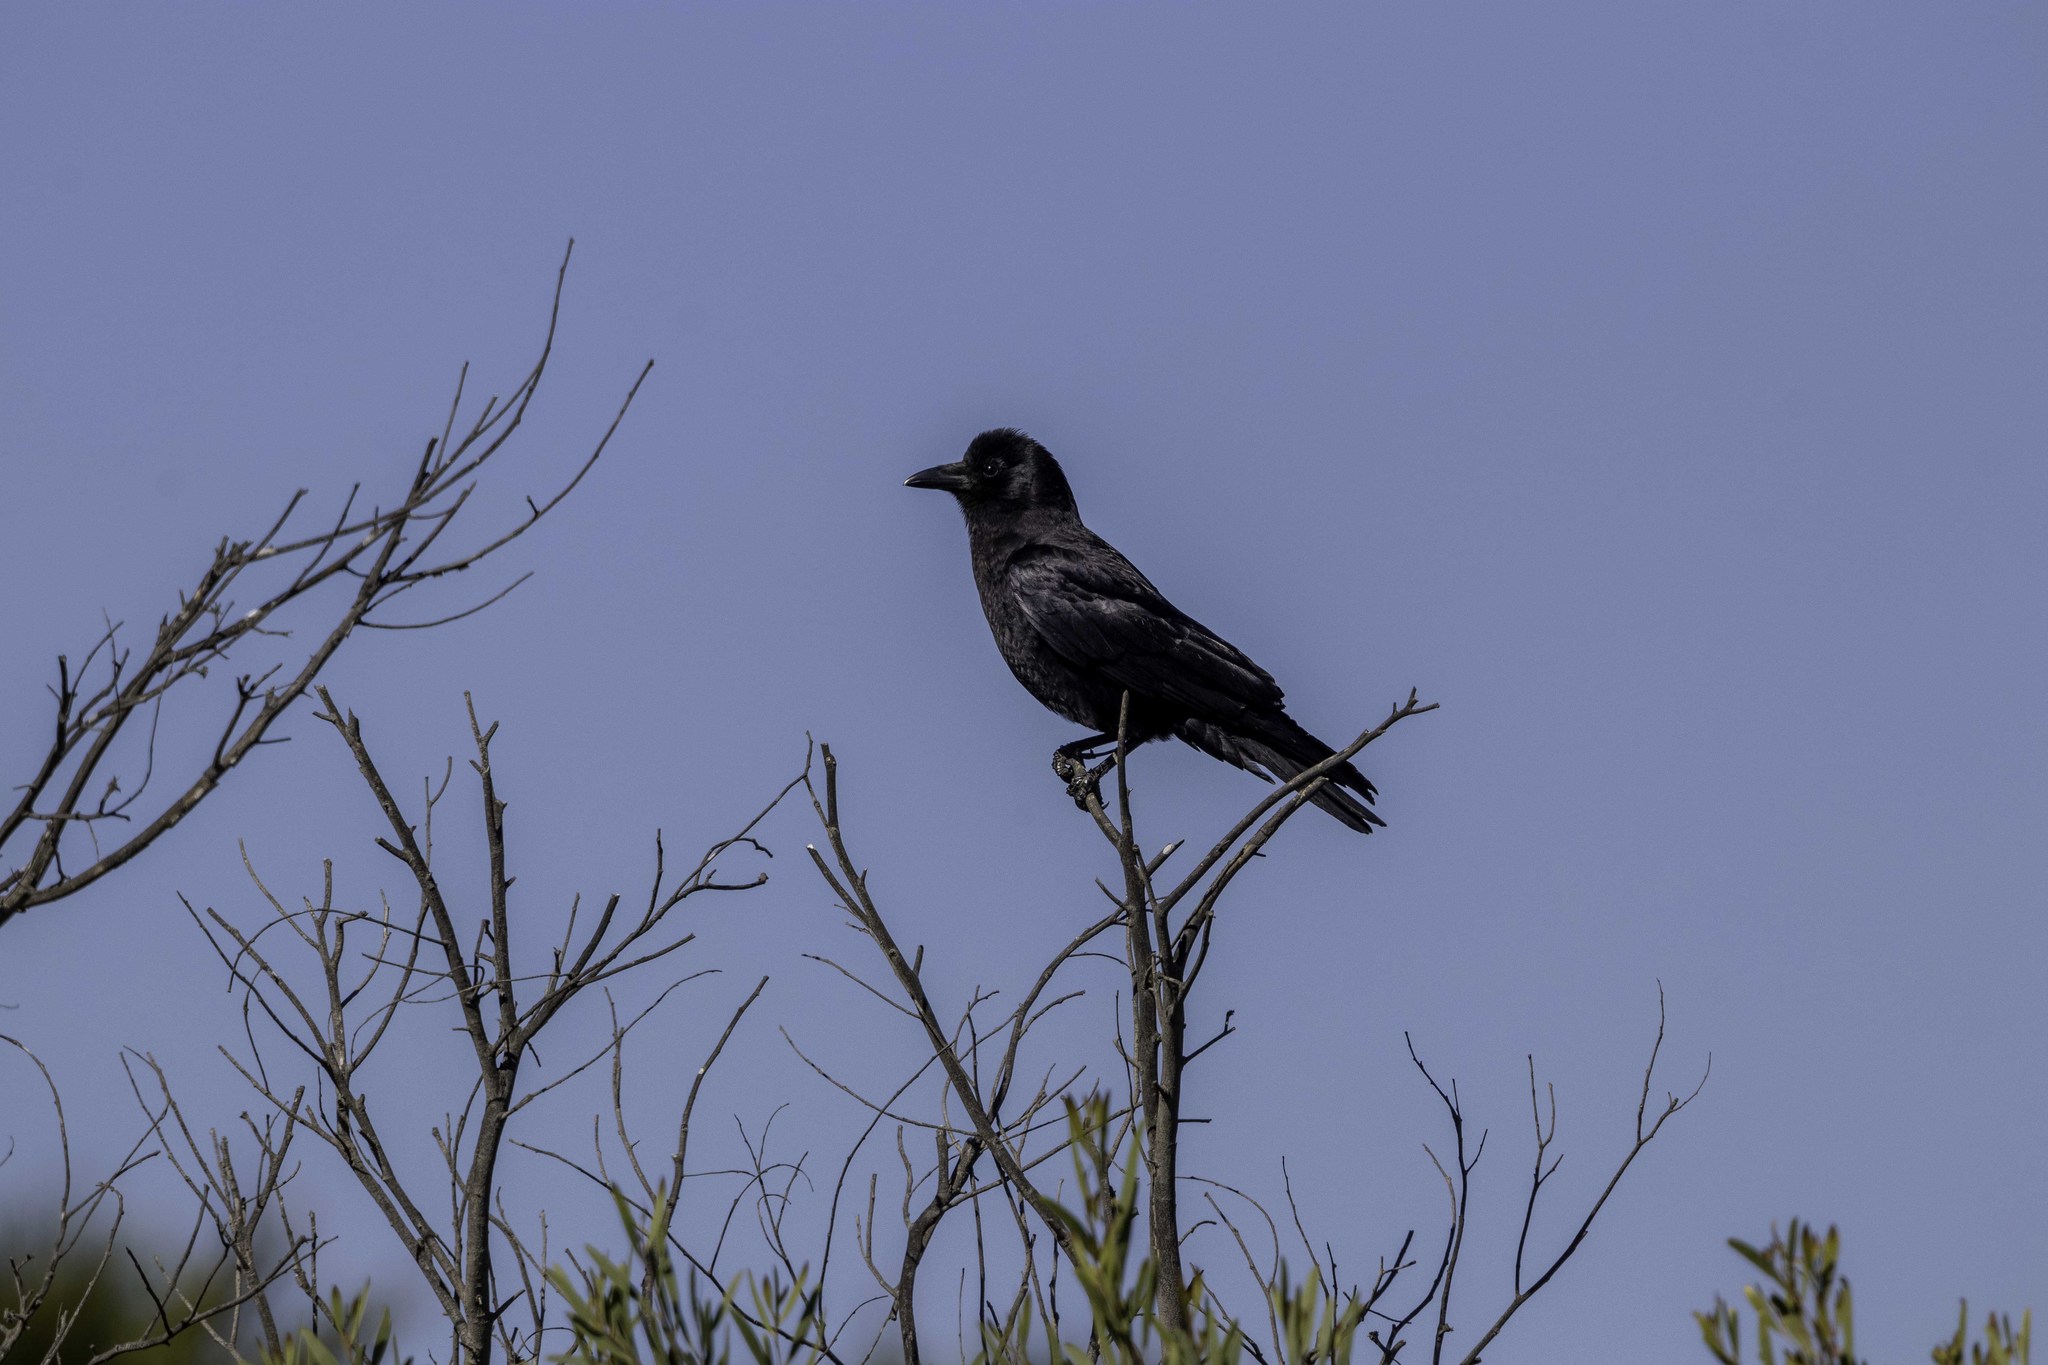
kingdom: Animalia
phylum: Chordata
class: Aves
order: Passeriformes
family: Corvidae
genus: Corvus
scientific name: Corvus brachyrhynchos
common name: American crow
